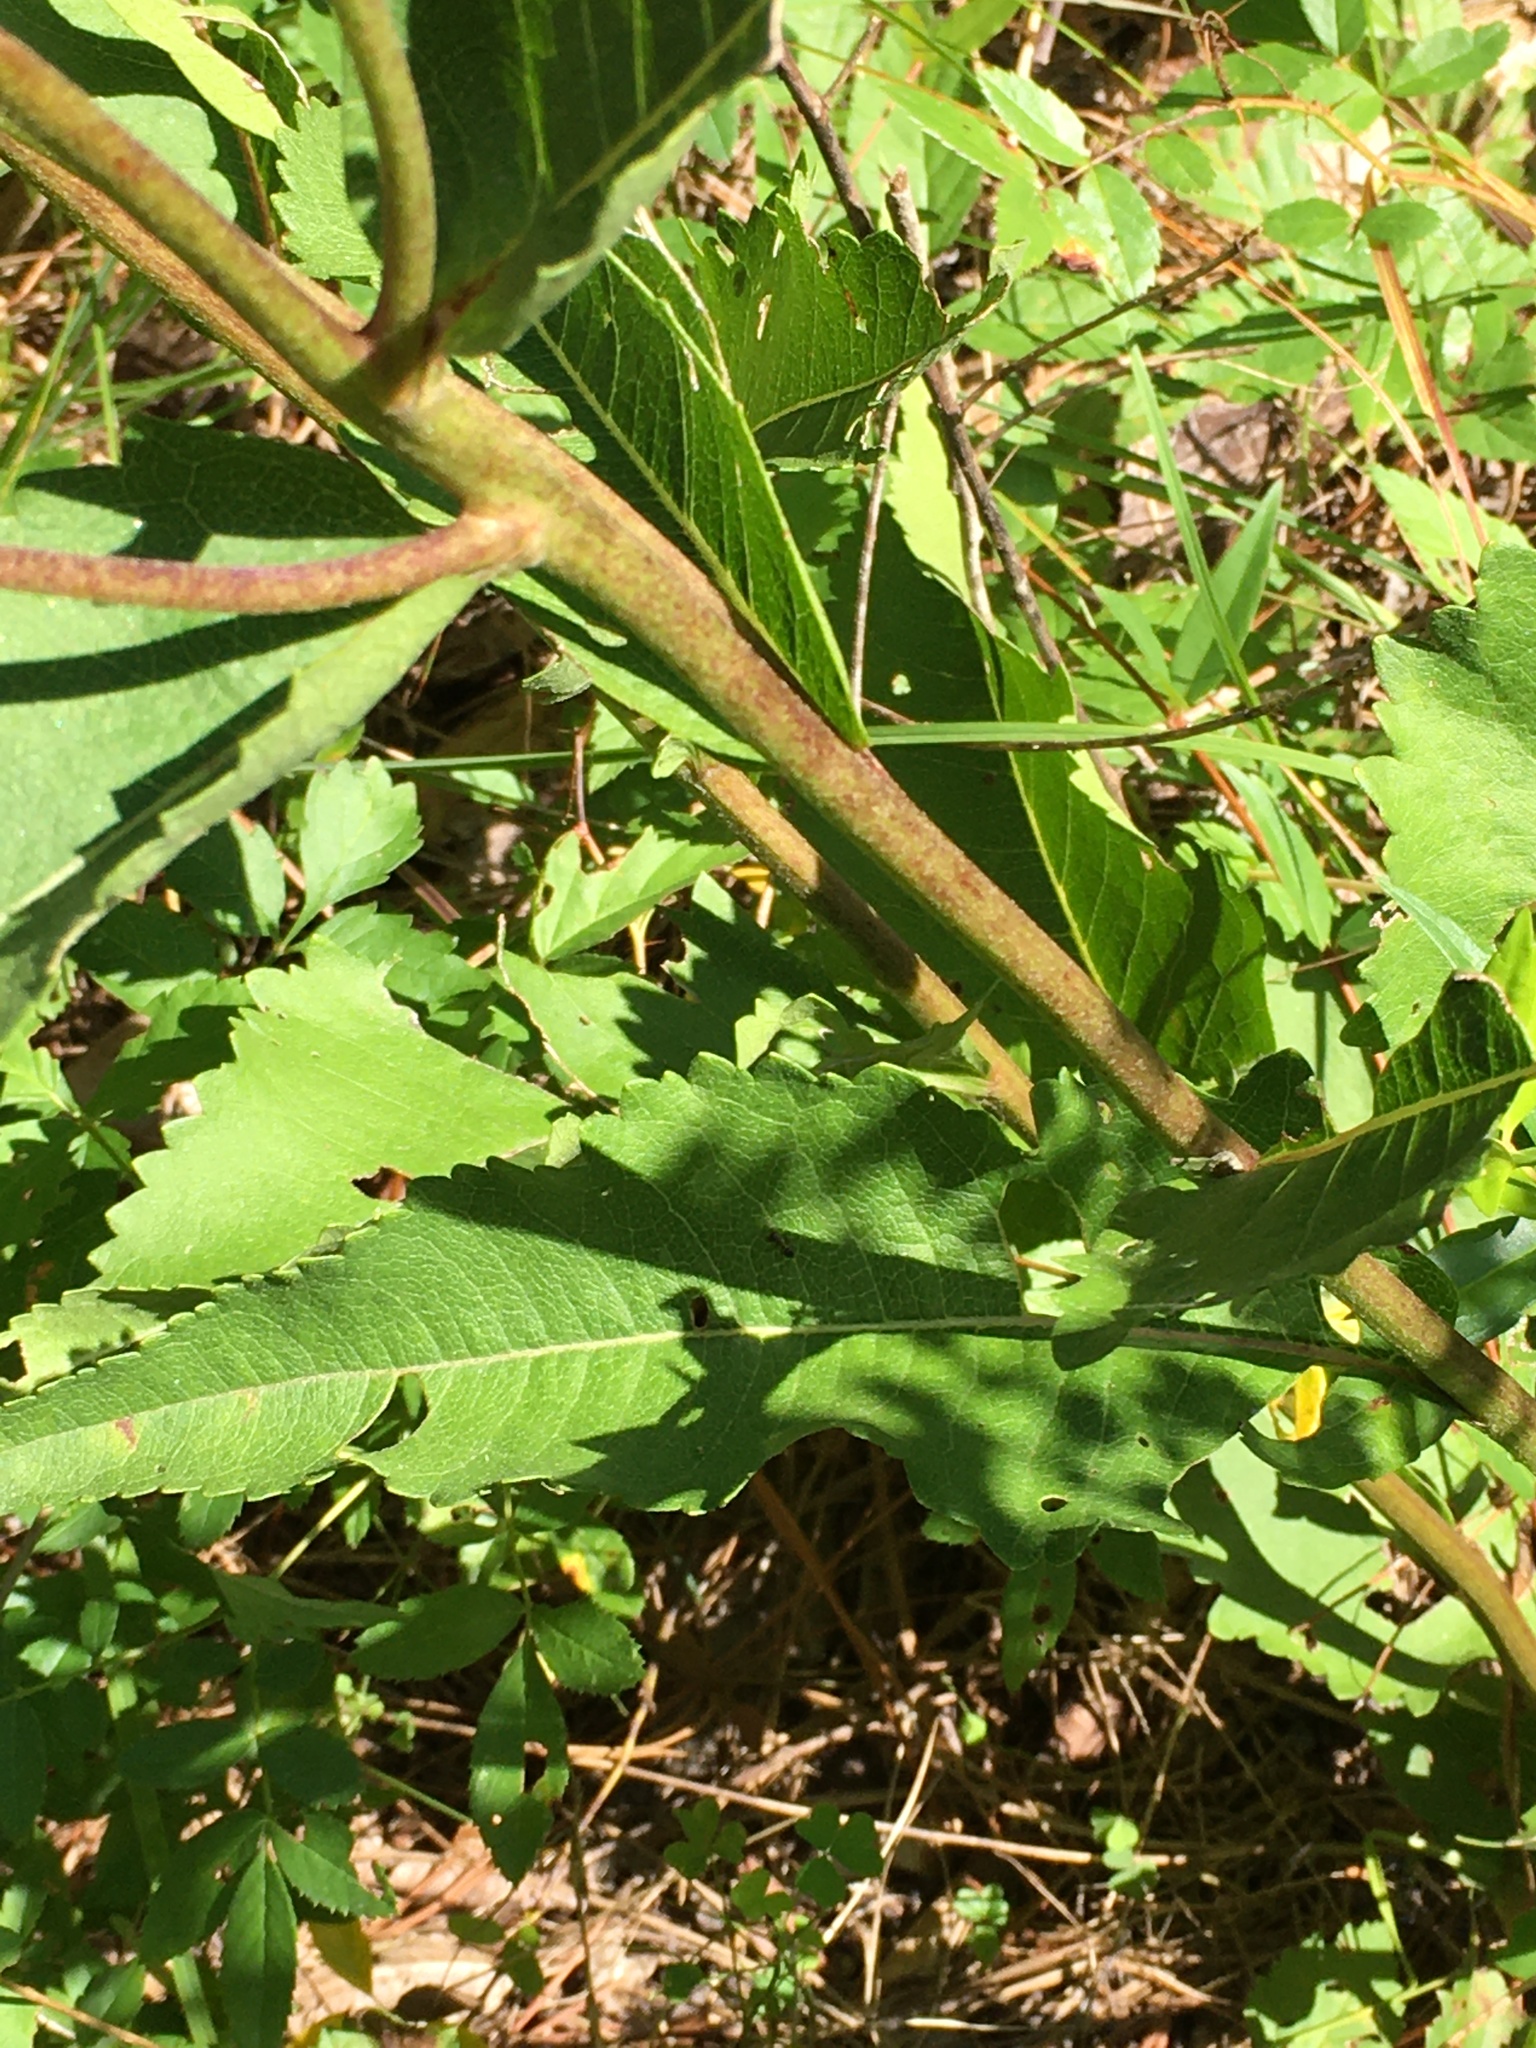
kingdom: Plantae
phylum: Tracheophyta
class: Magnoliopsida
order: Asterales
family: Asteraceae
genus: Parthenium
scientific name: Parthenium integrifolium
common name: American feverfew
